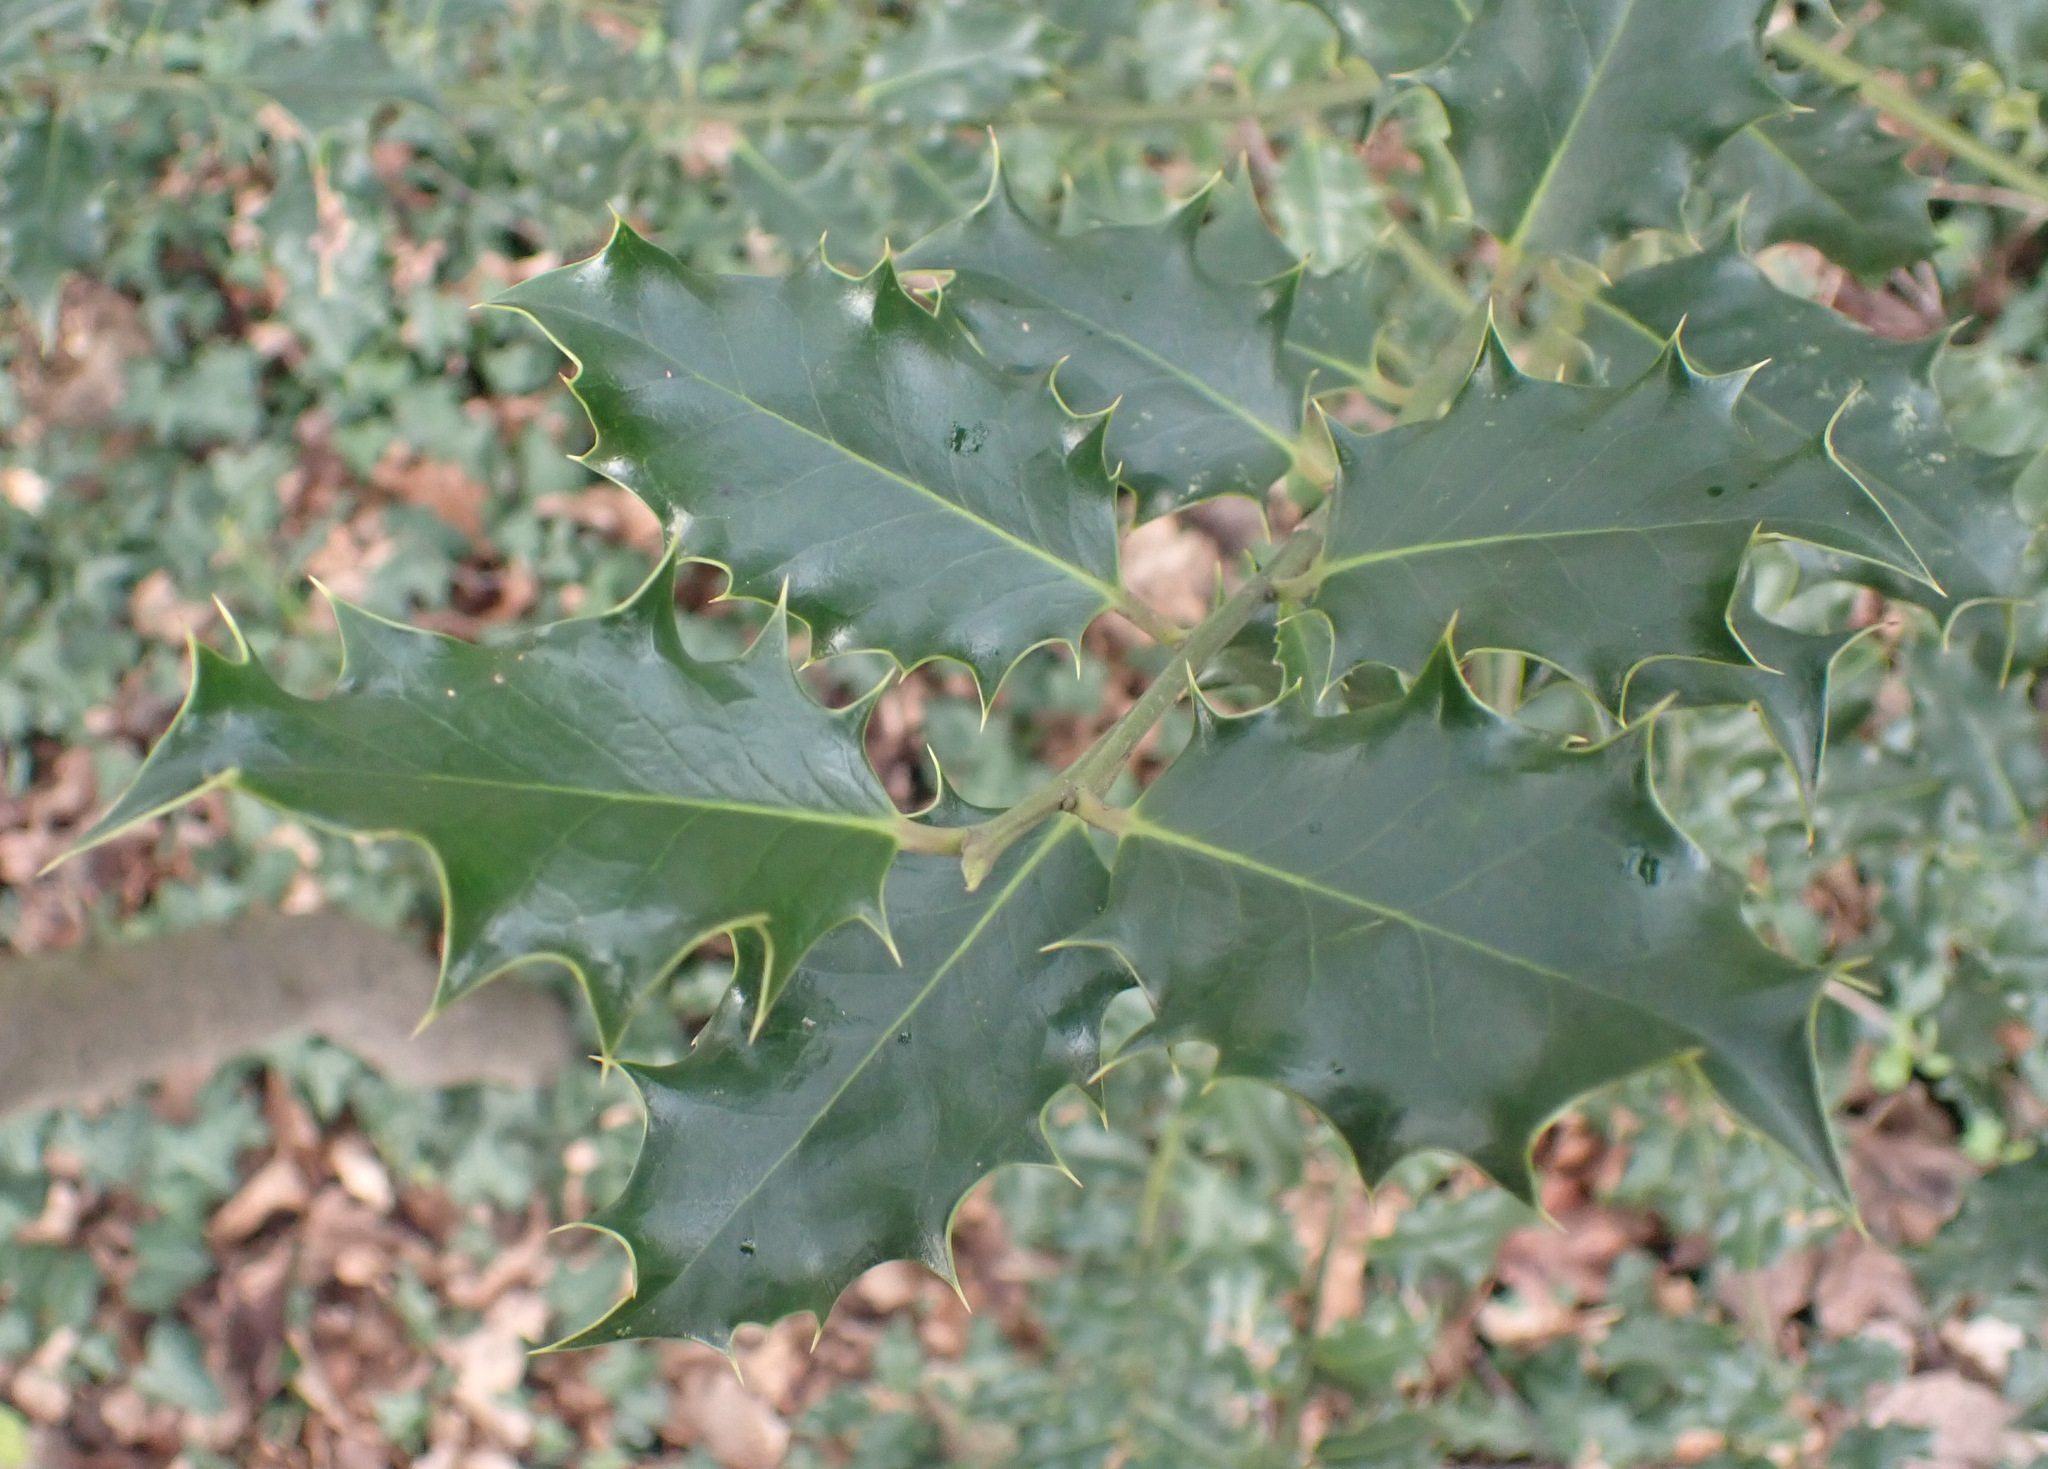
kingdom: Plantae
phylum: Tracheophyta
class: Magnoliopsida
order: Aquifoliales
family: Aquifoliaceae
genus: Ilex
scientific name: Ilex aquifolium
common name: English holly
